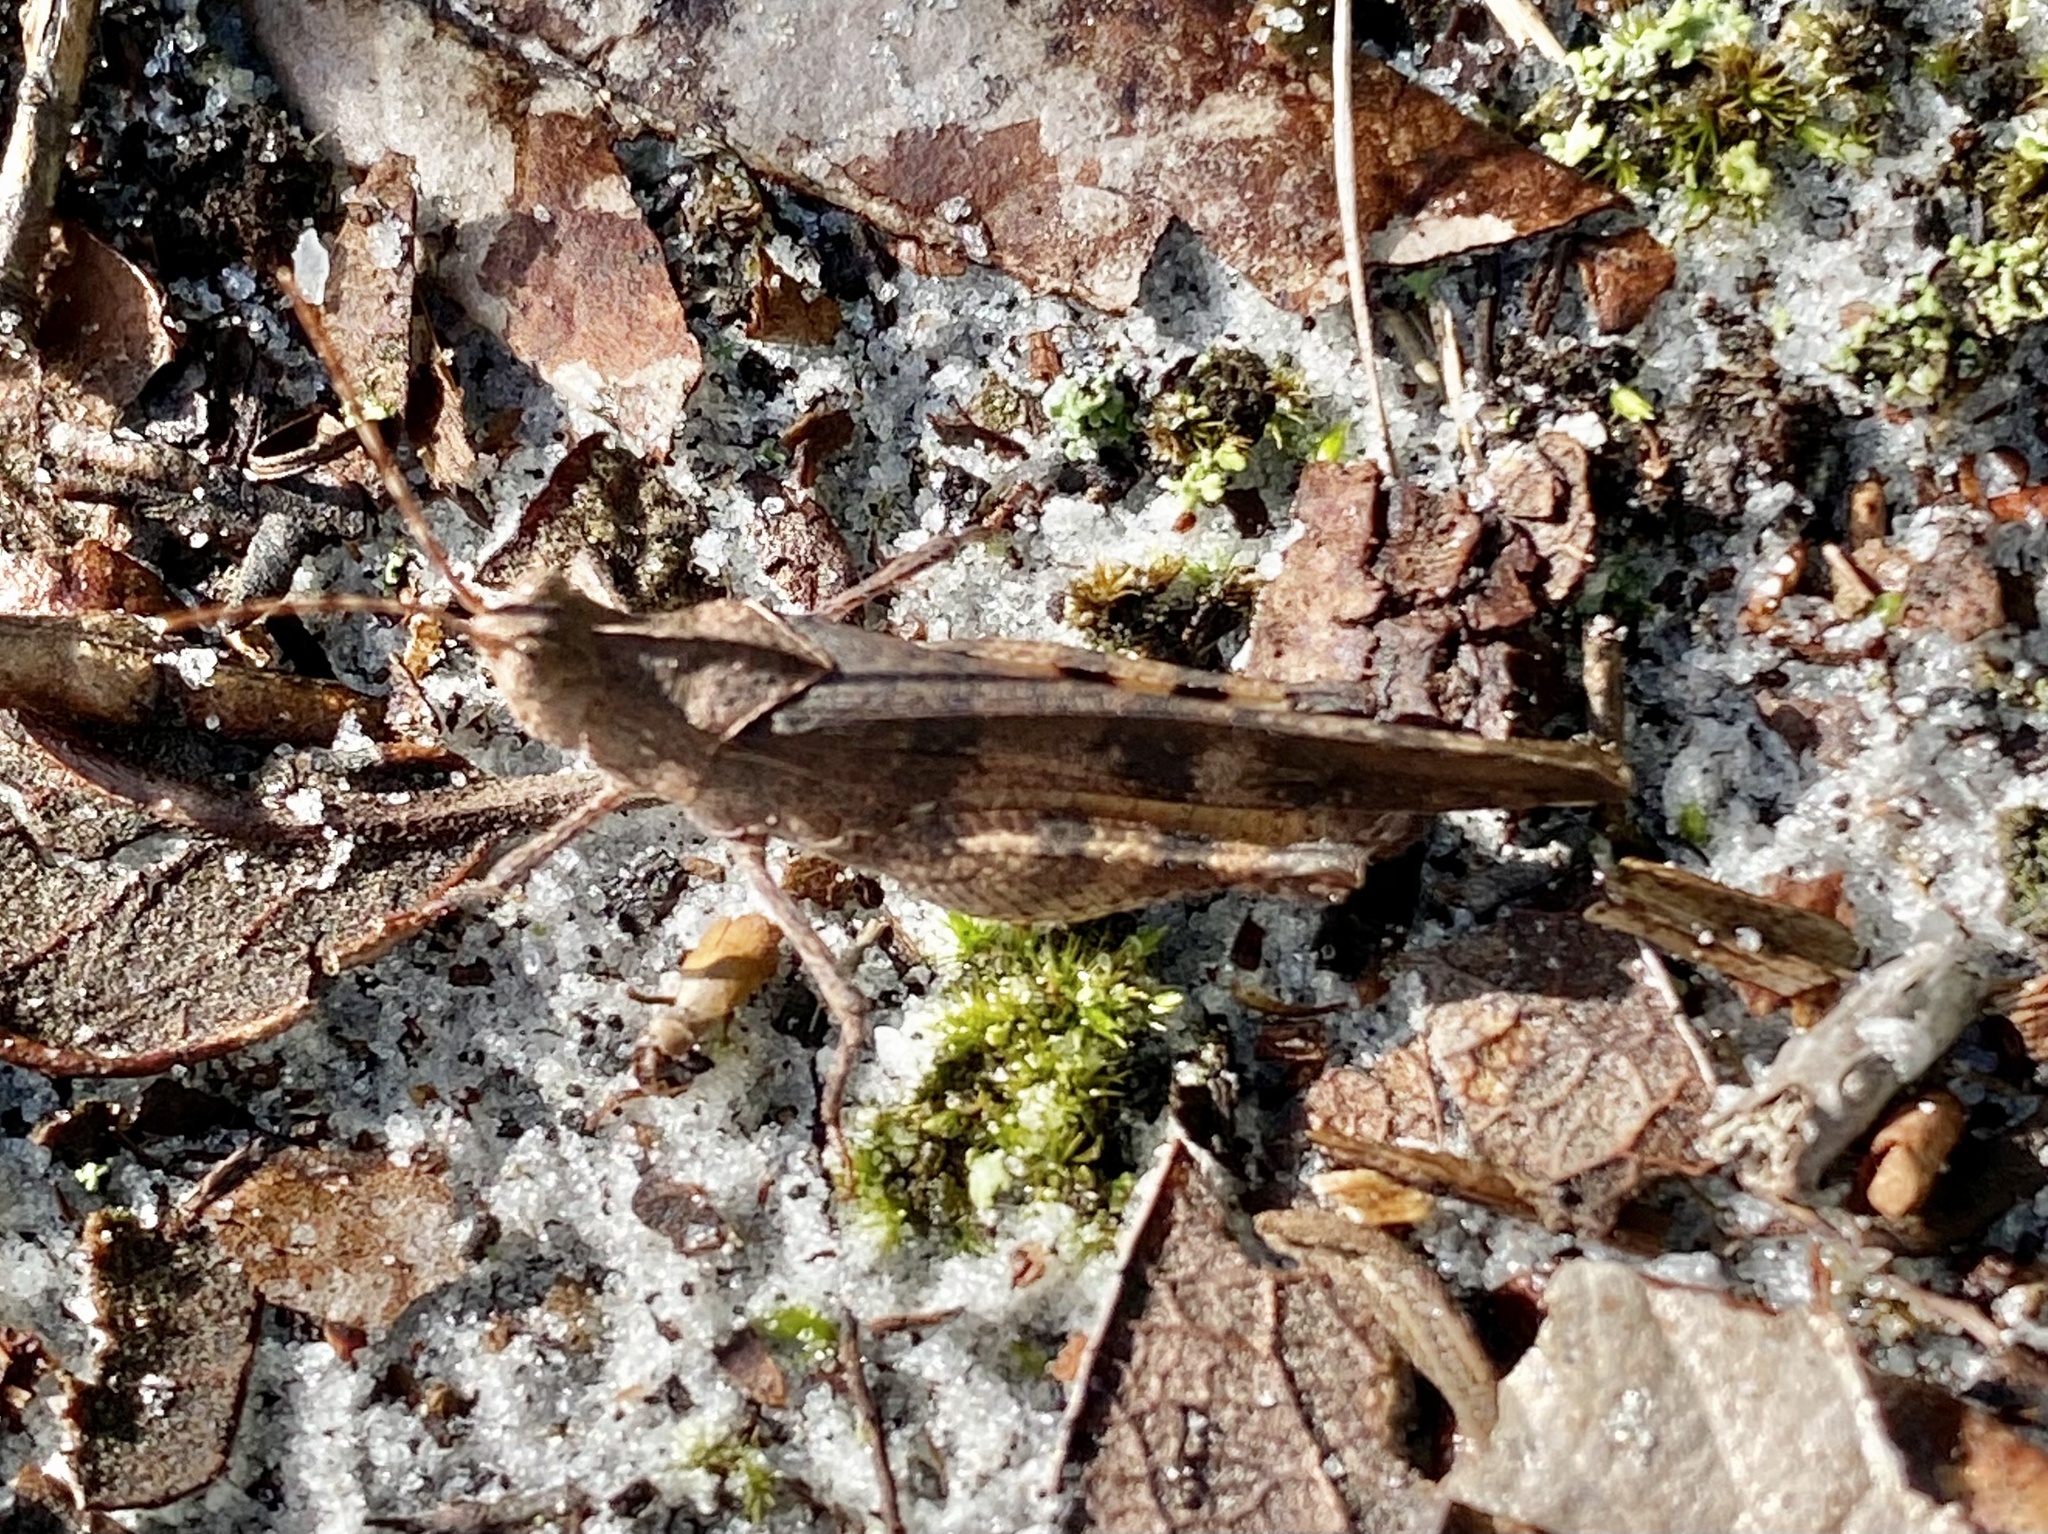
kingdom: Animalia
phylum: Arthropoda
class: Insecta
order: Orthoptera
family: Acrididae
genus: Spharagemon
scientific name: Spharagemon crepitans
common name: Crepitating grasshopper
